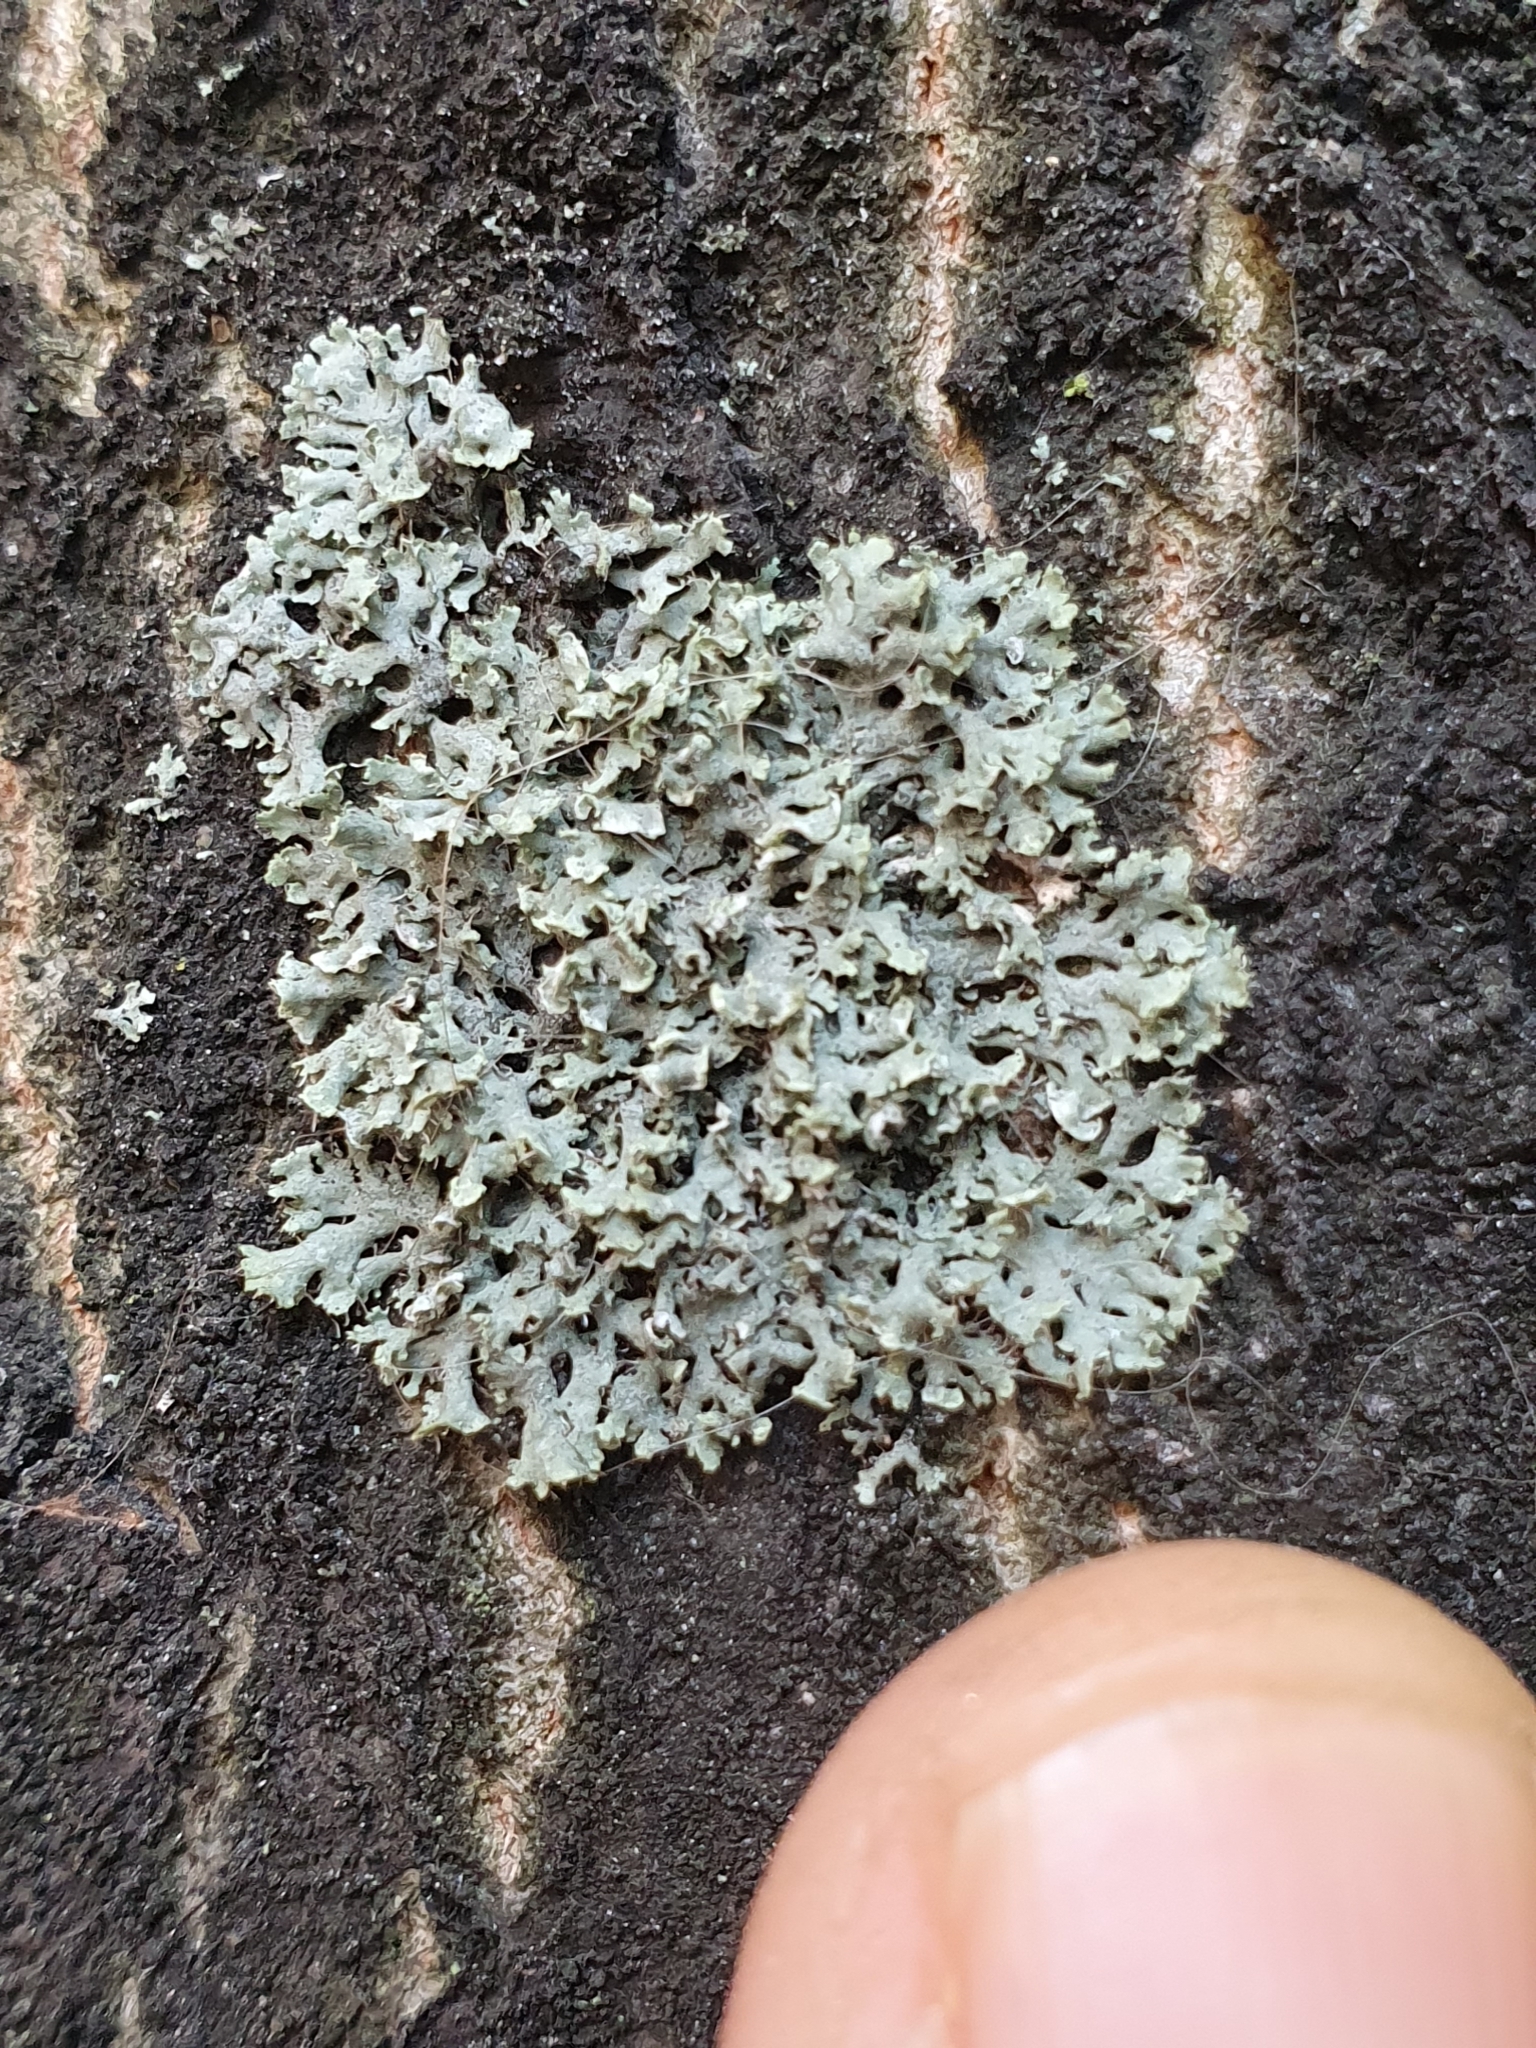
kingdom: Fungi
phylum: Ascomycota
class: Lecanoromycetes
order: Caliciales
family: Physciaceae
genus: Physcia
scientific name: Physcia tenella
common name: Fringed rosette lichen
